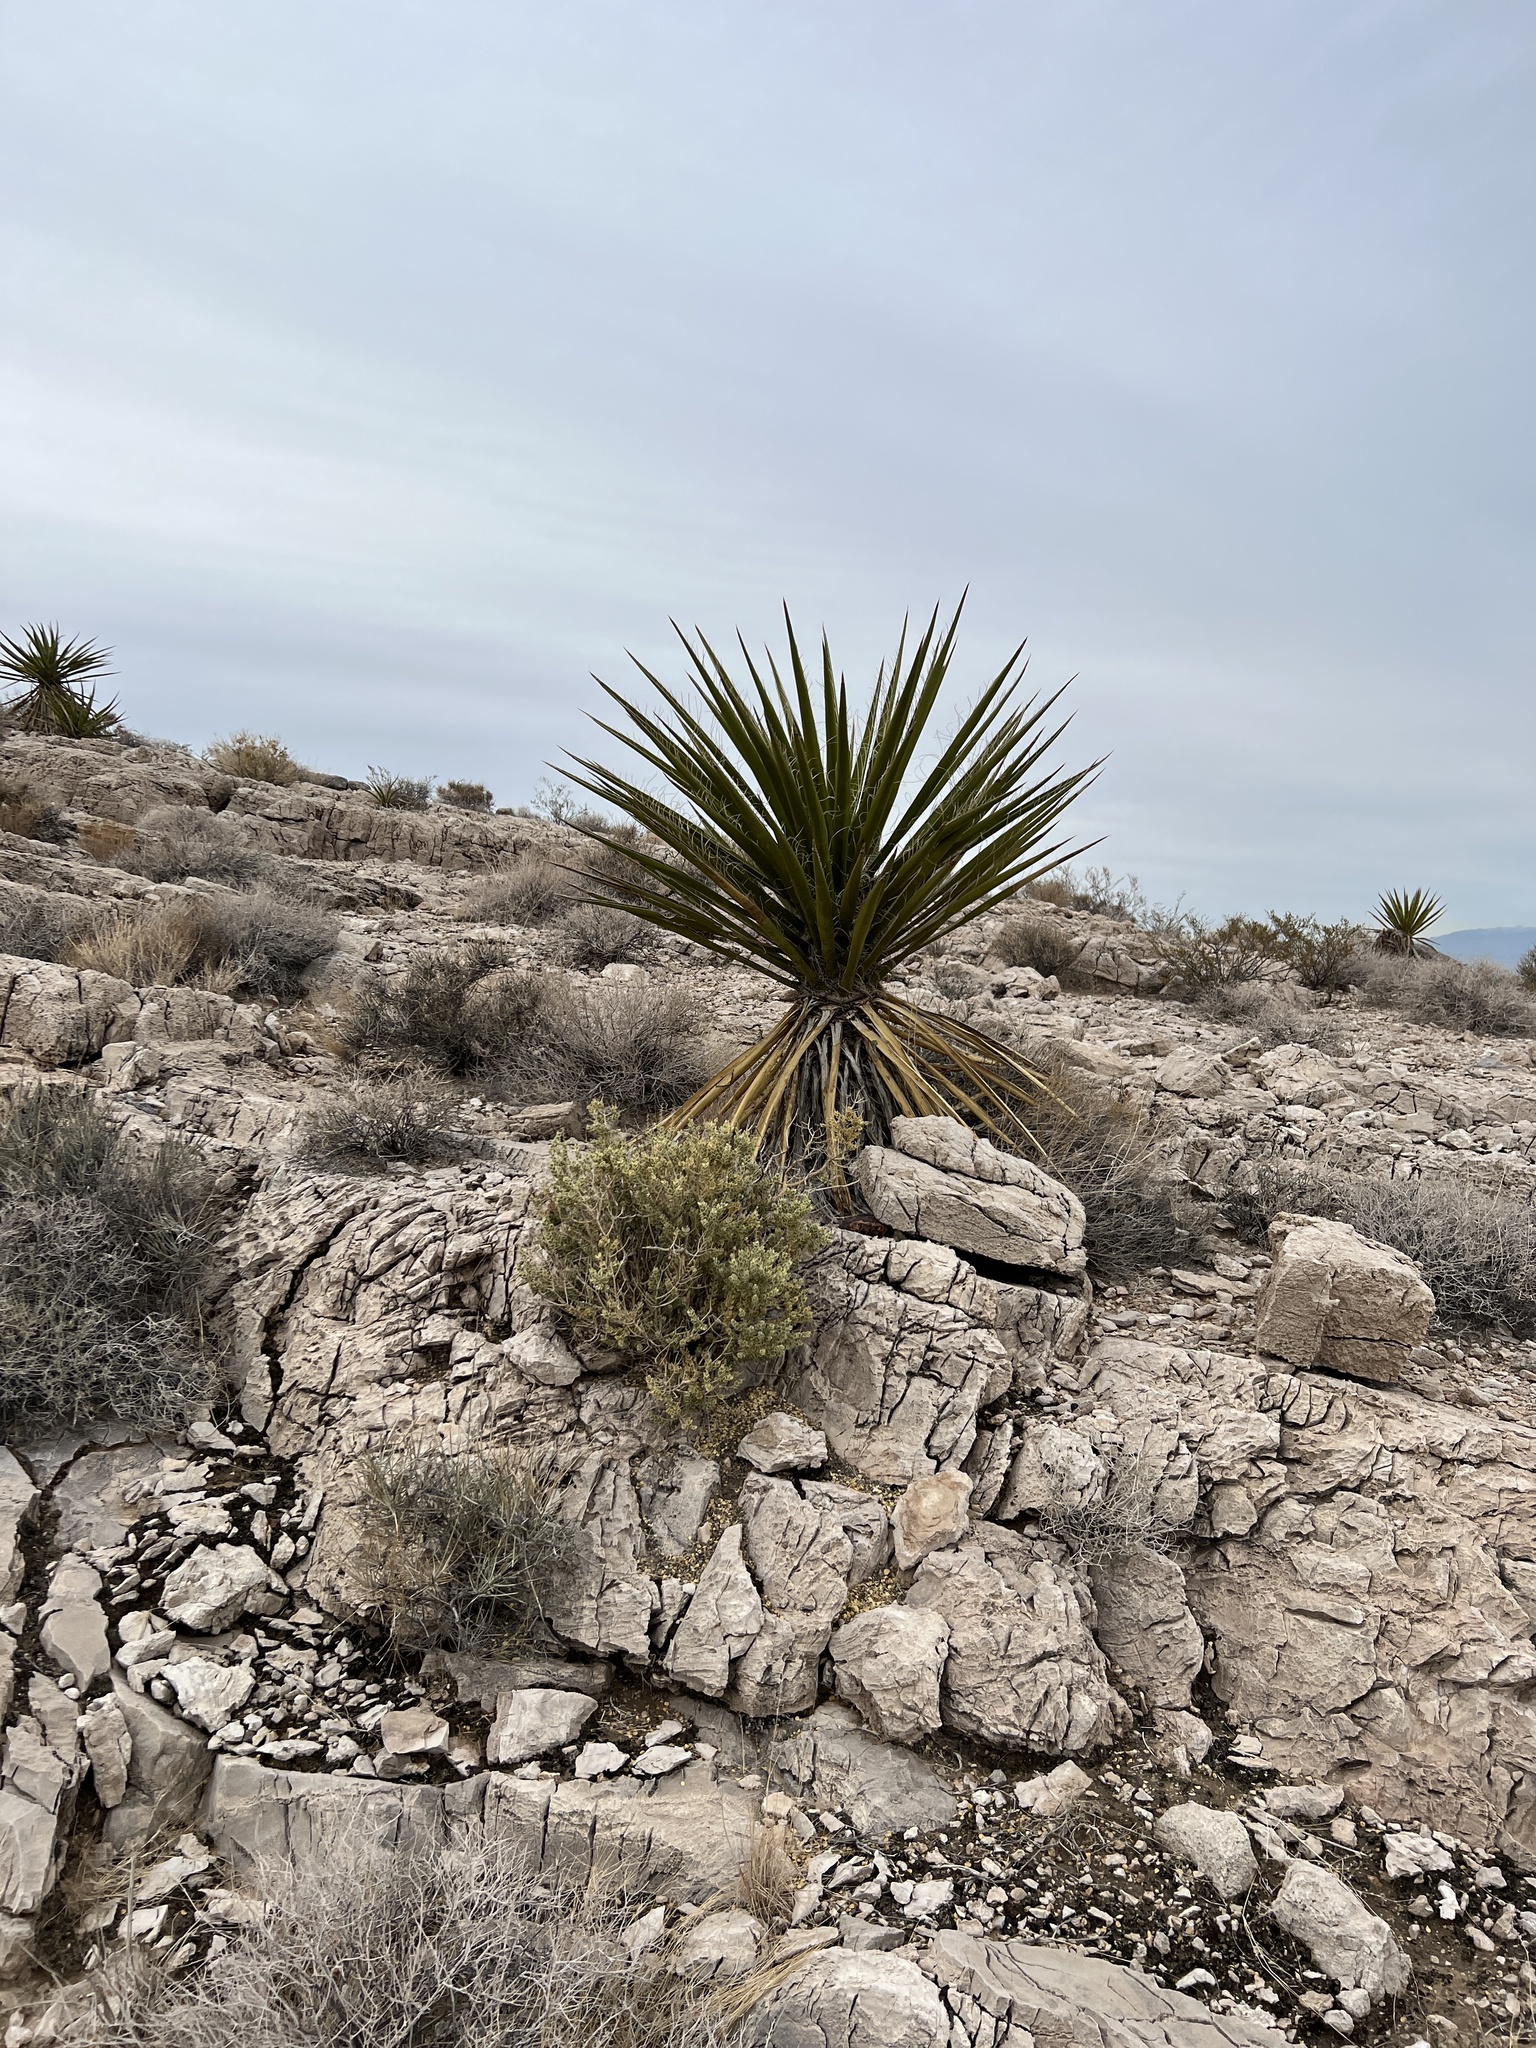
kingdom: Plantae
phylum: Tracheophyta
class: Liliopsida
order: Asparagales
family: Asparagaceae
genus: Yucca
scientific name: Yucca schidigera
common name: Mojave yucca
